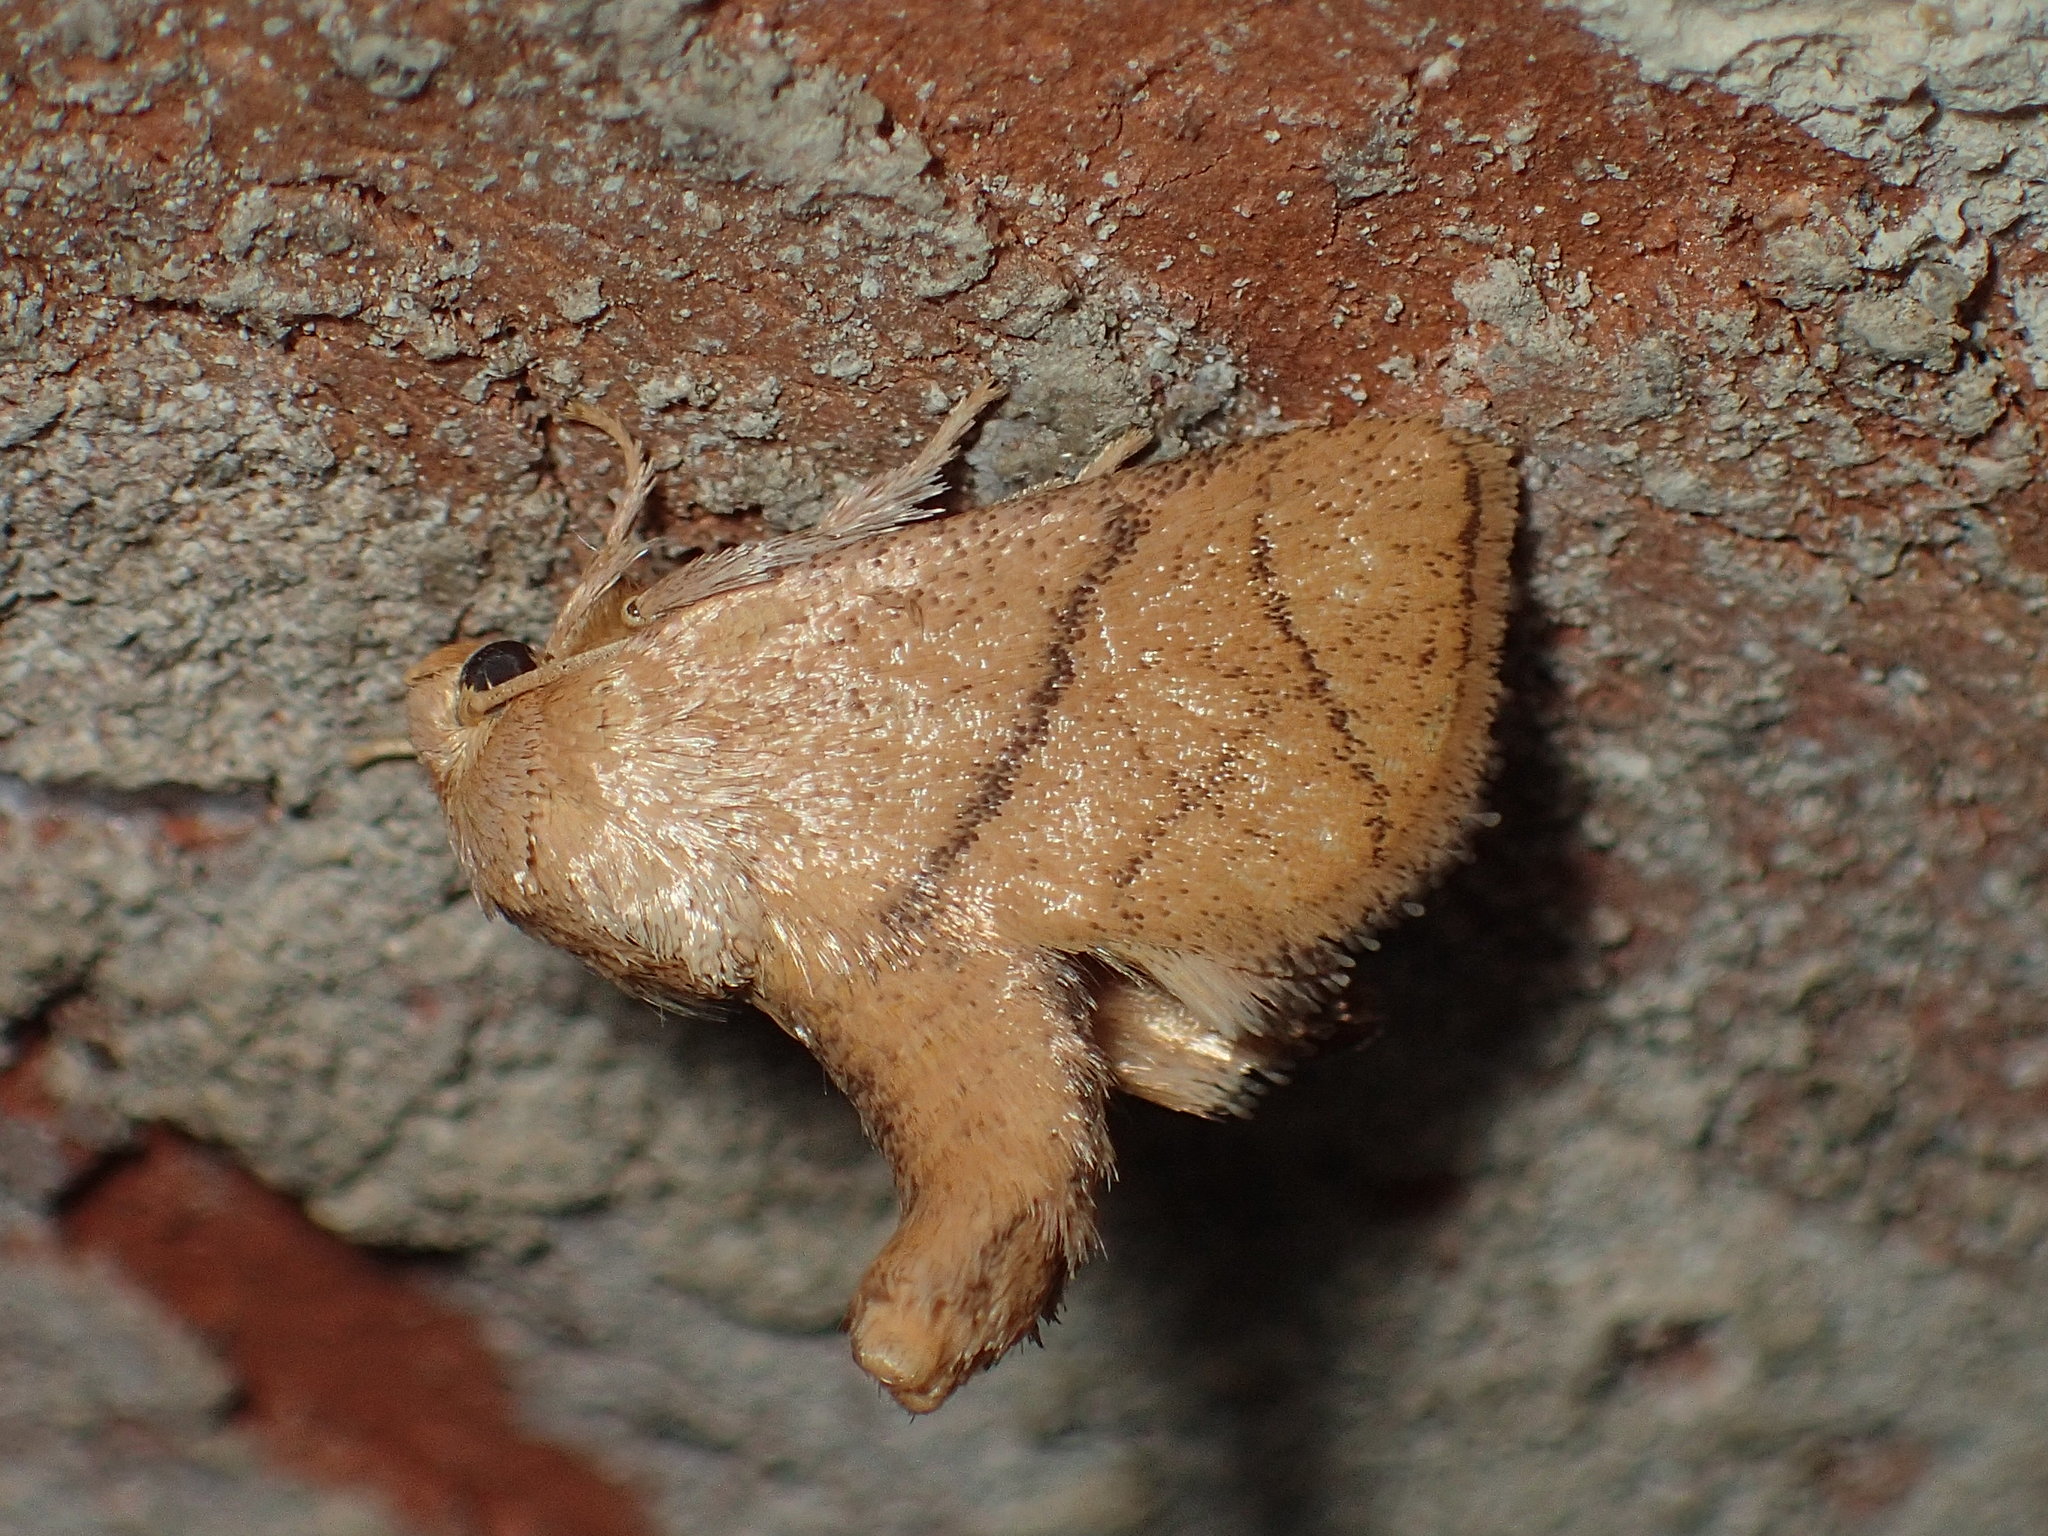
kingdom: Animalia
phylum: Arthropoda
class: Insecta
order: Lepidoptera
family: Limacodidae
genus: Apoda
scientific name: Apoda y-inversa
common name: Yellow-collared slug moth
